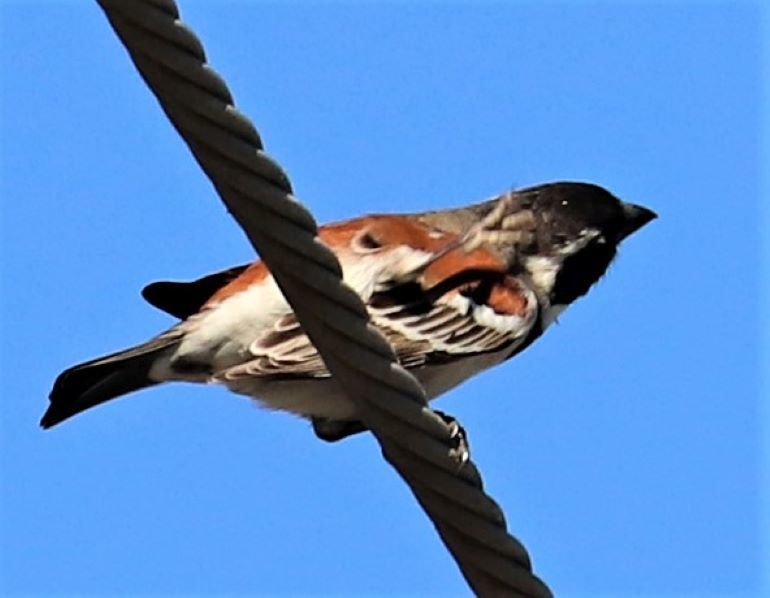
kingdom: Animalia
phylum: Chordata
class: Aves
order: Passeriformes
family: Passeridae
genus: Passer
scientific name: Passer melanurus
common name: Cape sparrow
